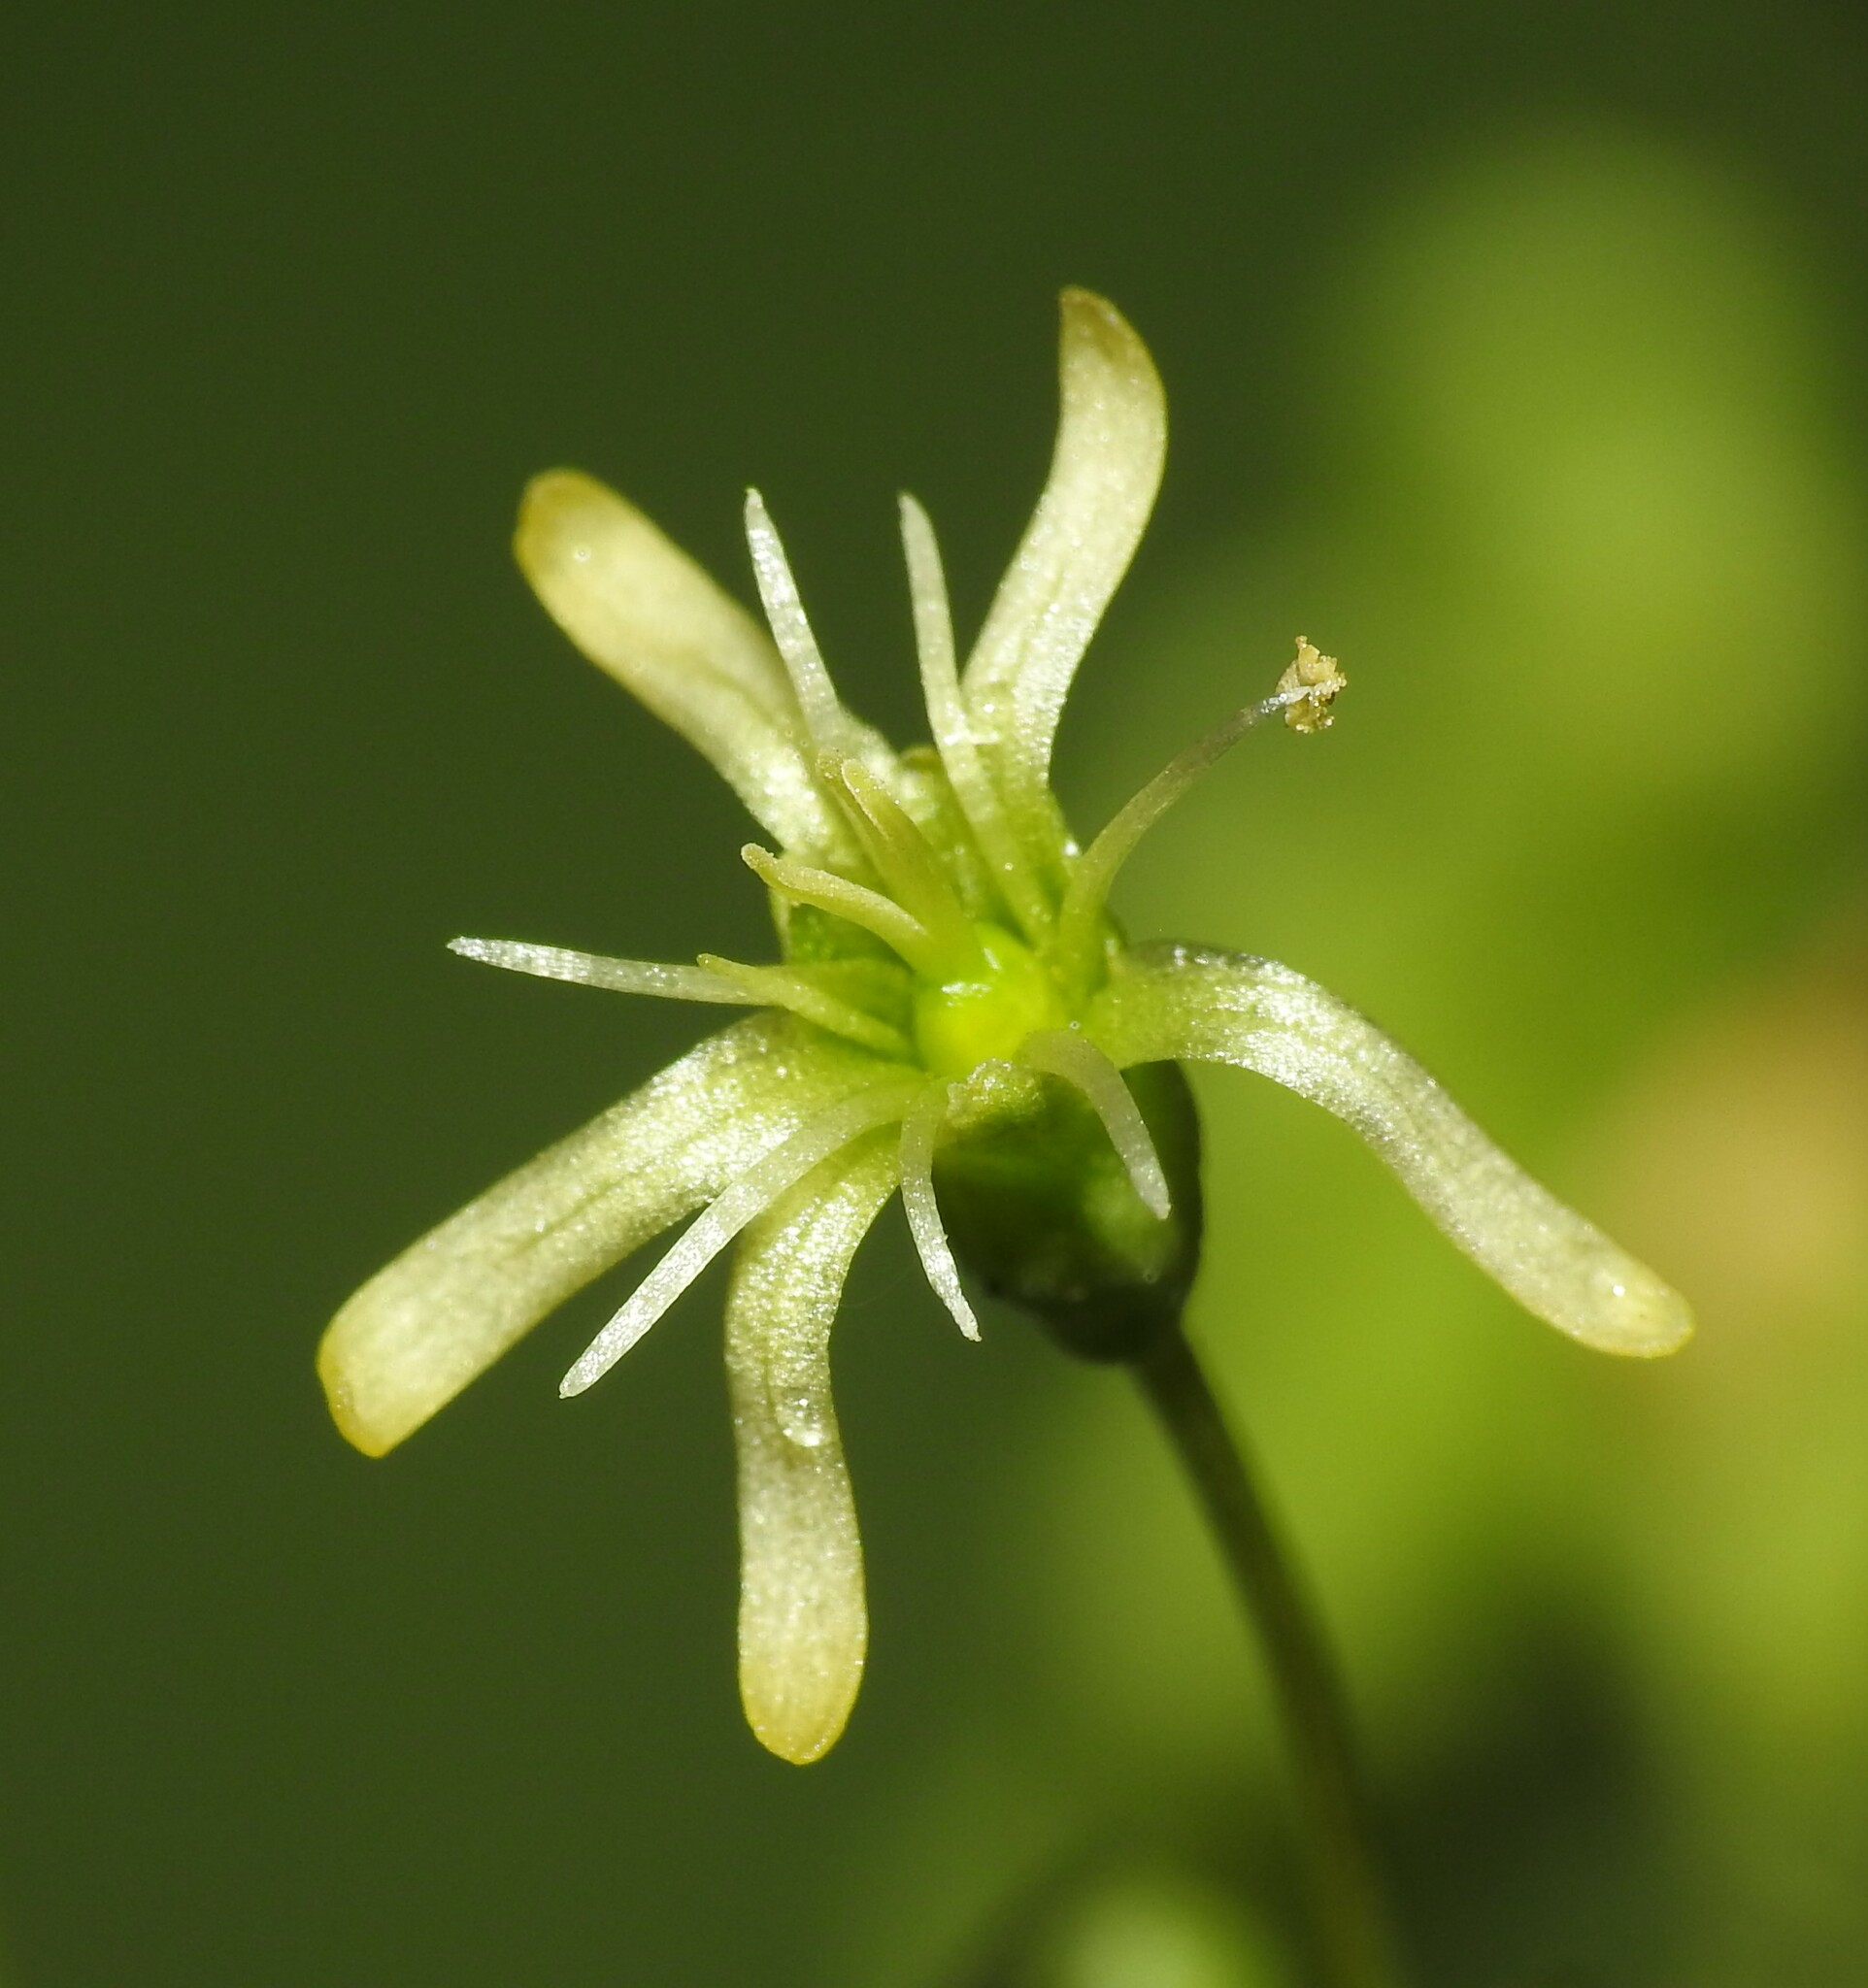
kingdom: Plantae
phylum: Tracheophyta
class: Magnoliopsida
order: Caryophyllales
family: Caryophyllaceae
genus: Silene
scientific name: Silene otites
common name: Spanish catchfly
